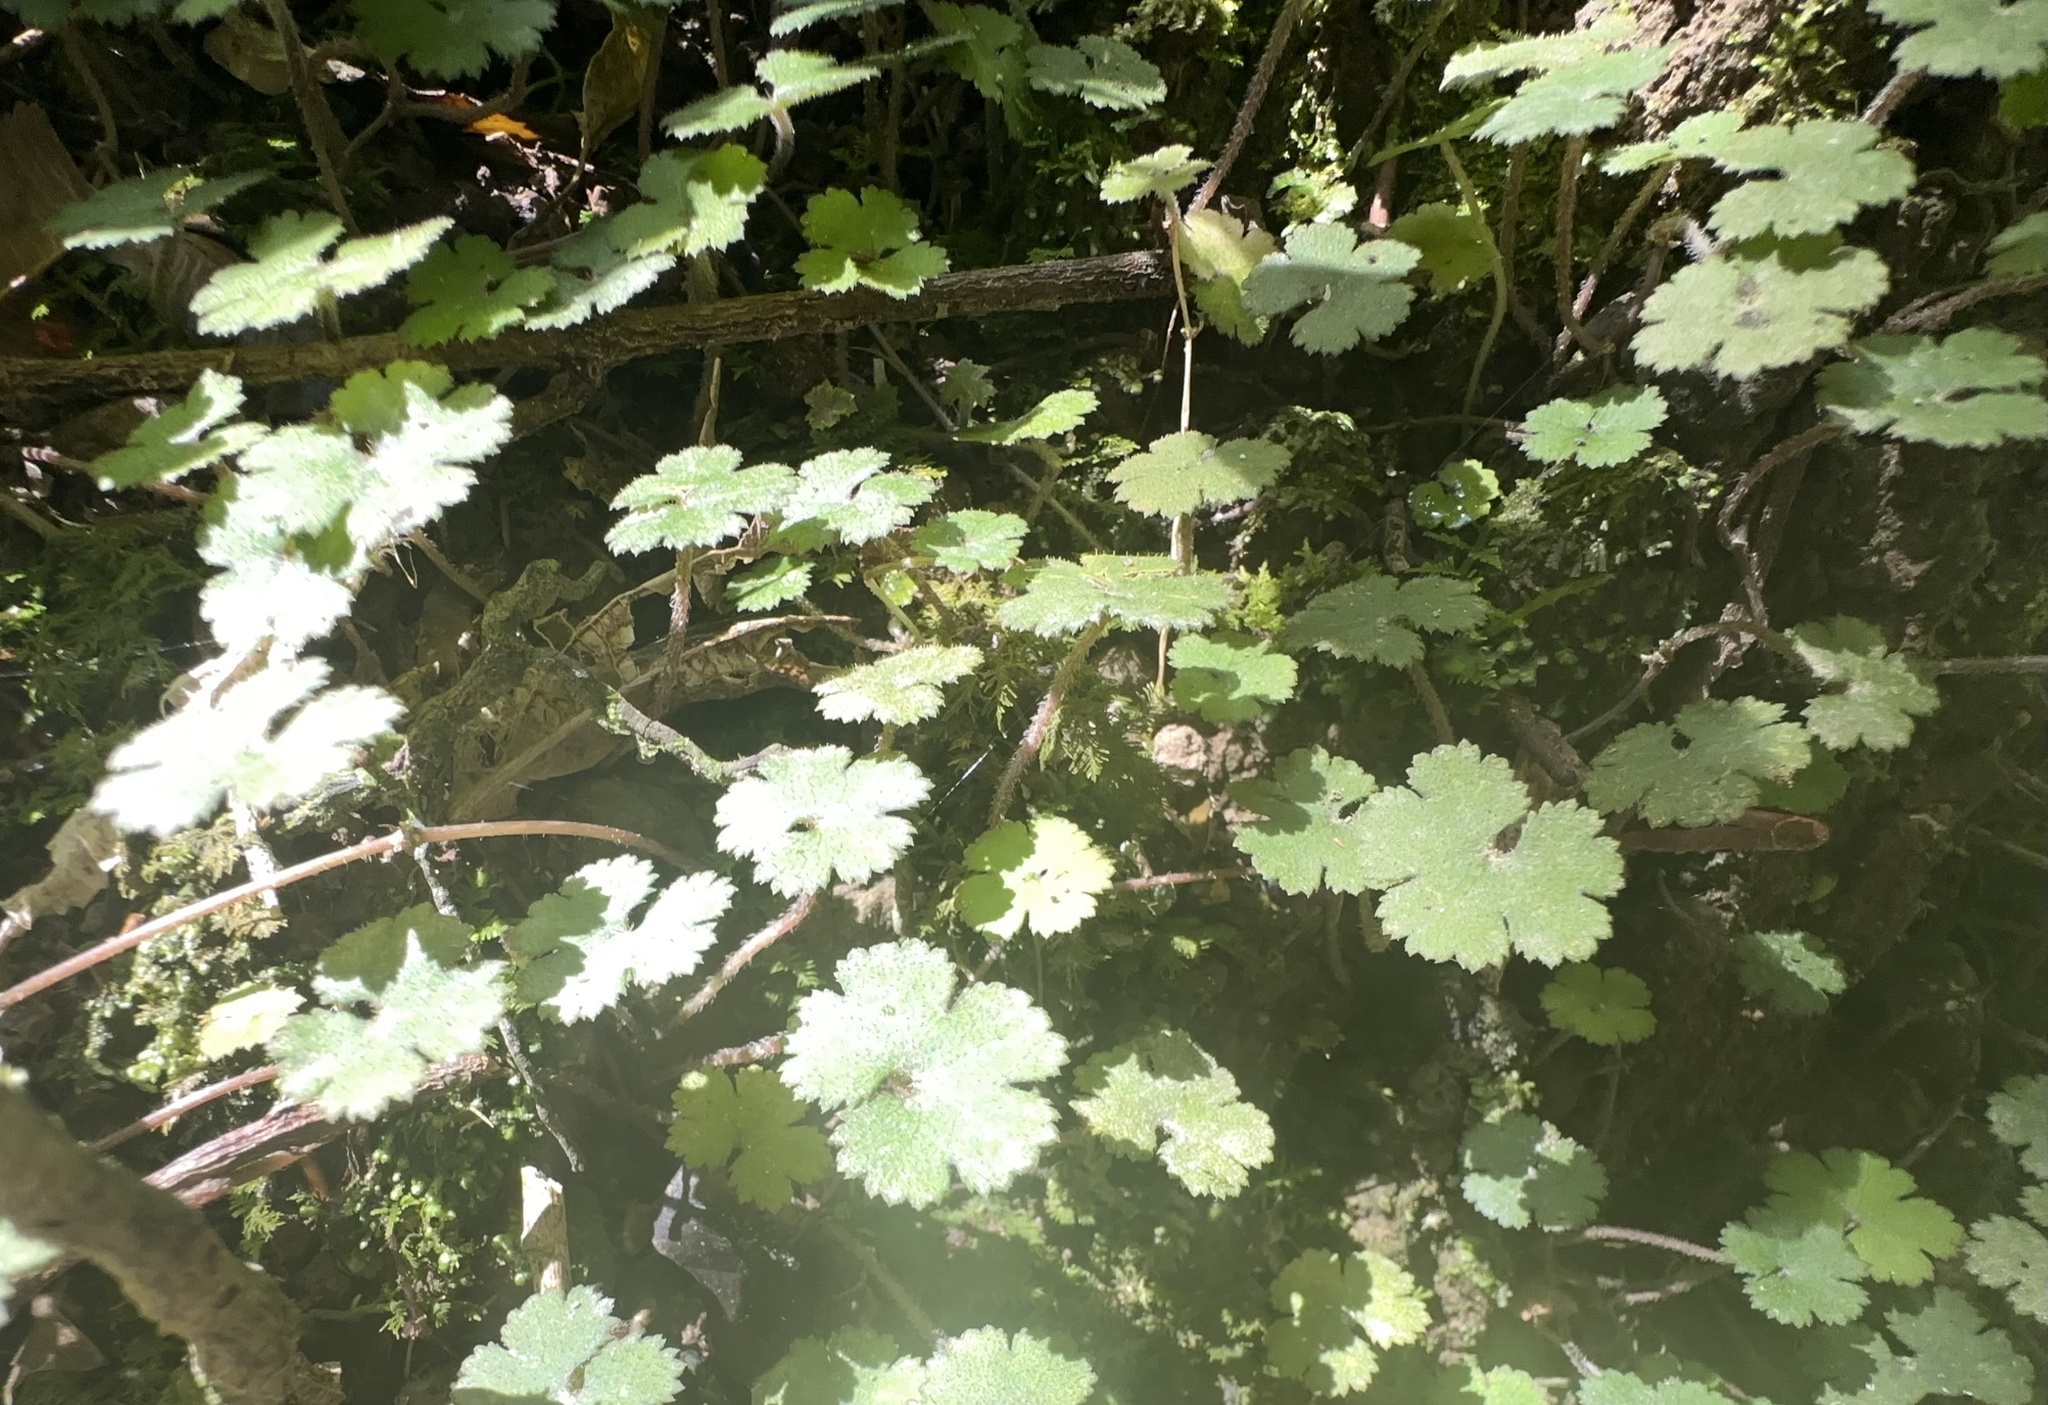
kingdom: Plantae
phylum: Tracheophyta
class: Magnoliopsida
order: Apiales
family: Araliaceae
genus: Hydrocotyle
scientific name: Hydrocotyle elongata
